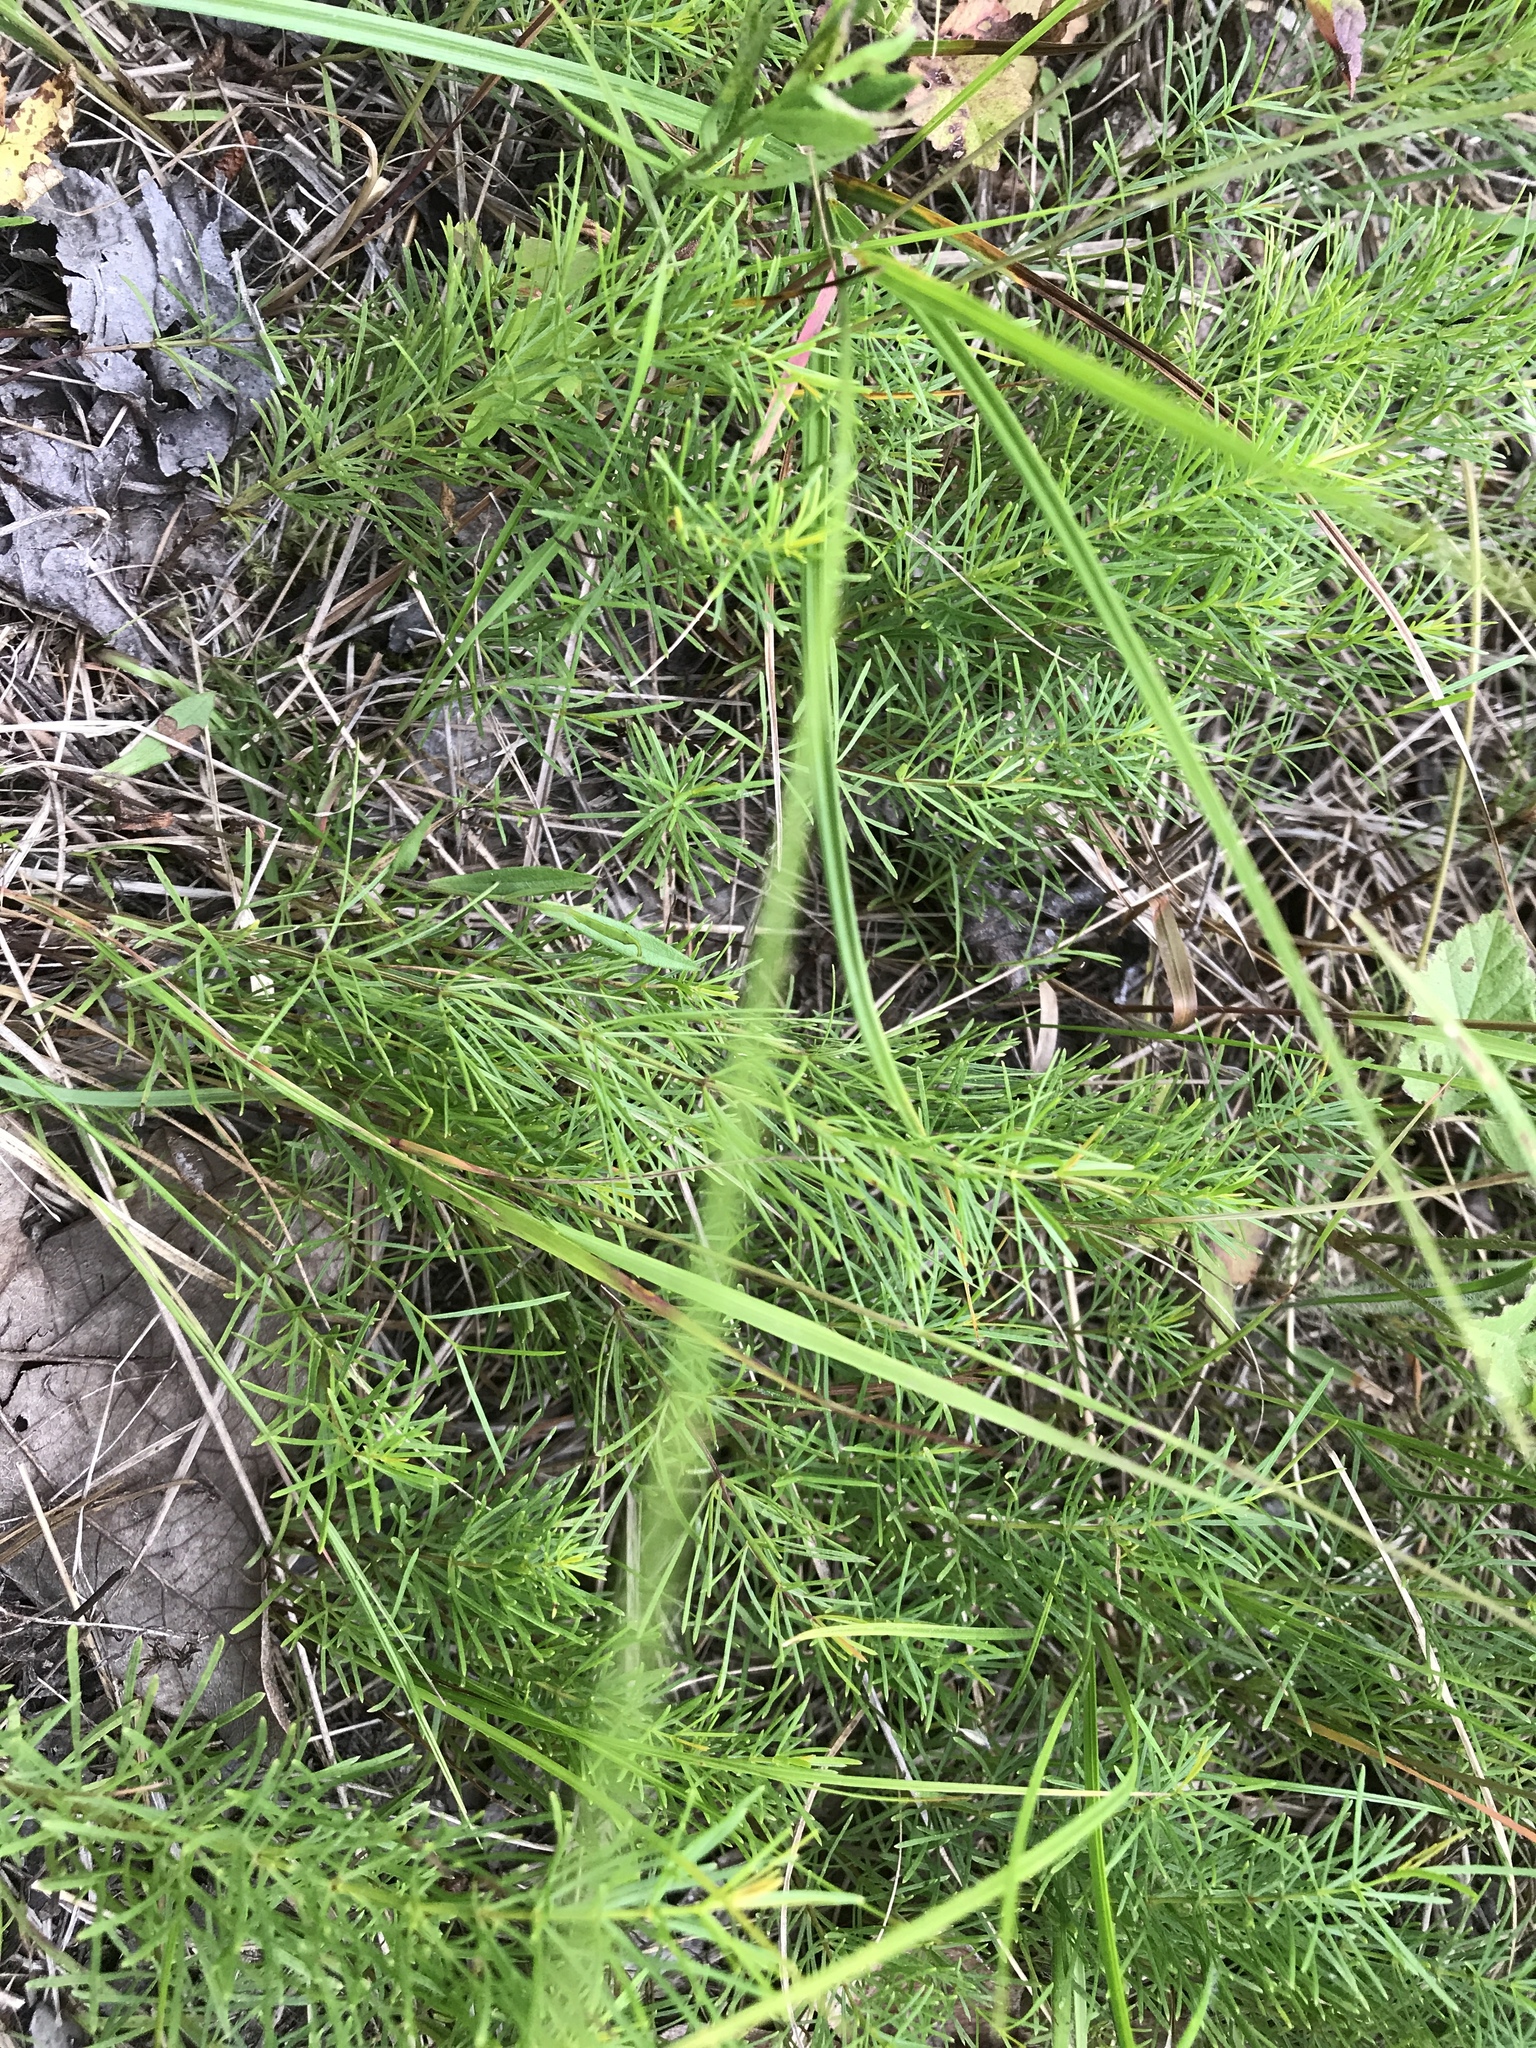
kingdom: Plantae
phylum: Tracheophyta
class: Magnoliopsida
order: Asterales
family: Asteraceae
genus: Coreopsis
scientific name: Coreopsis verticillata
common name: Whorled tickseed
